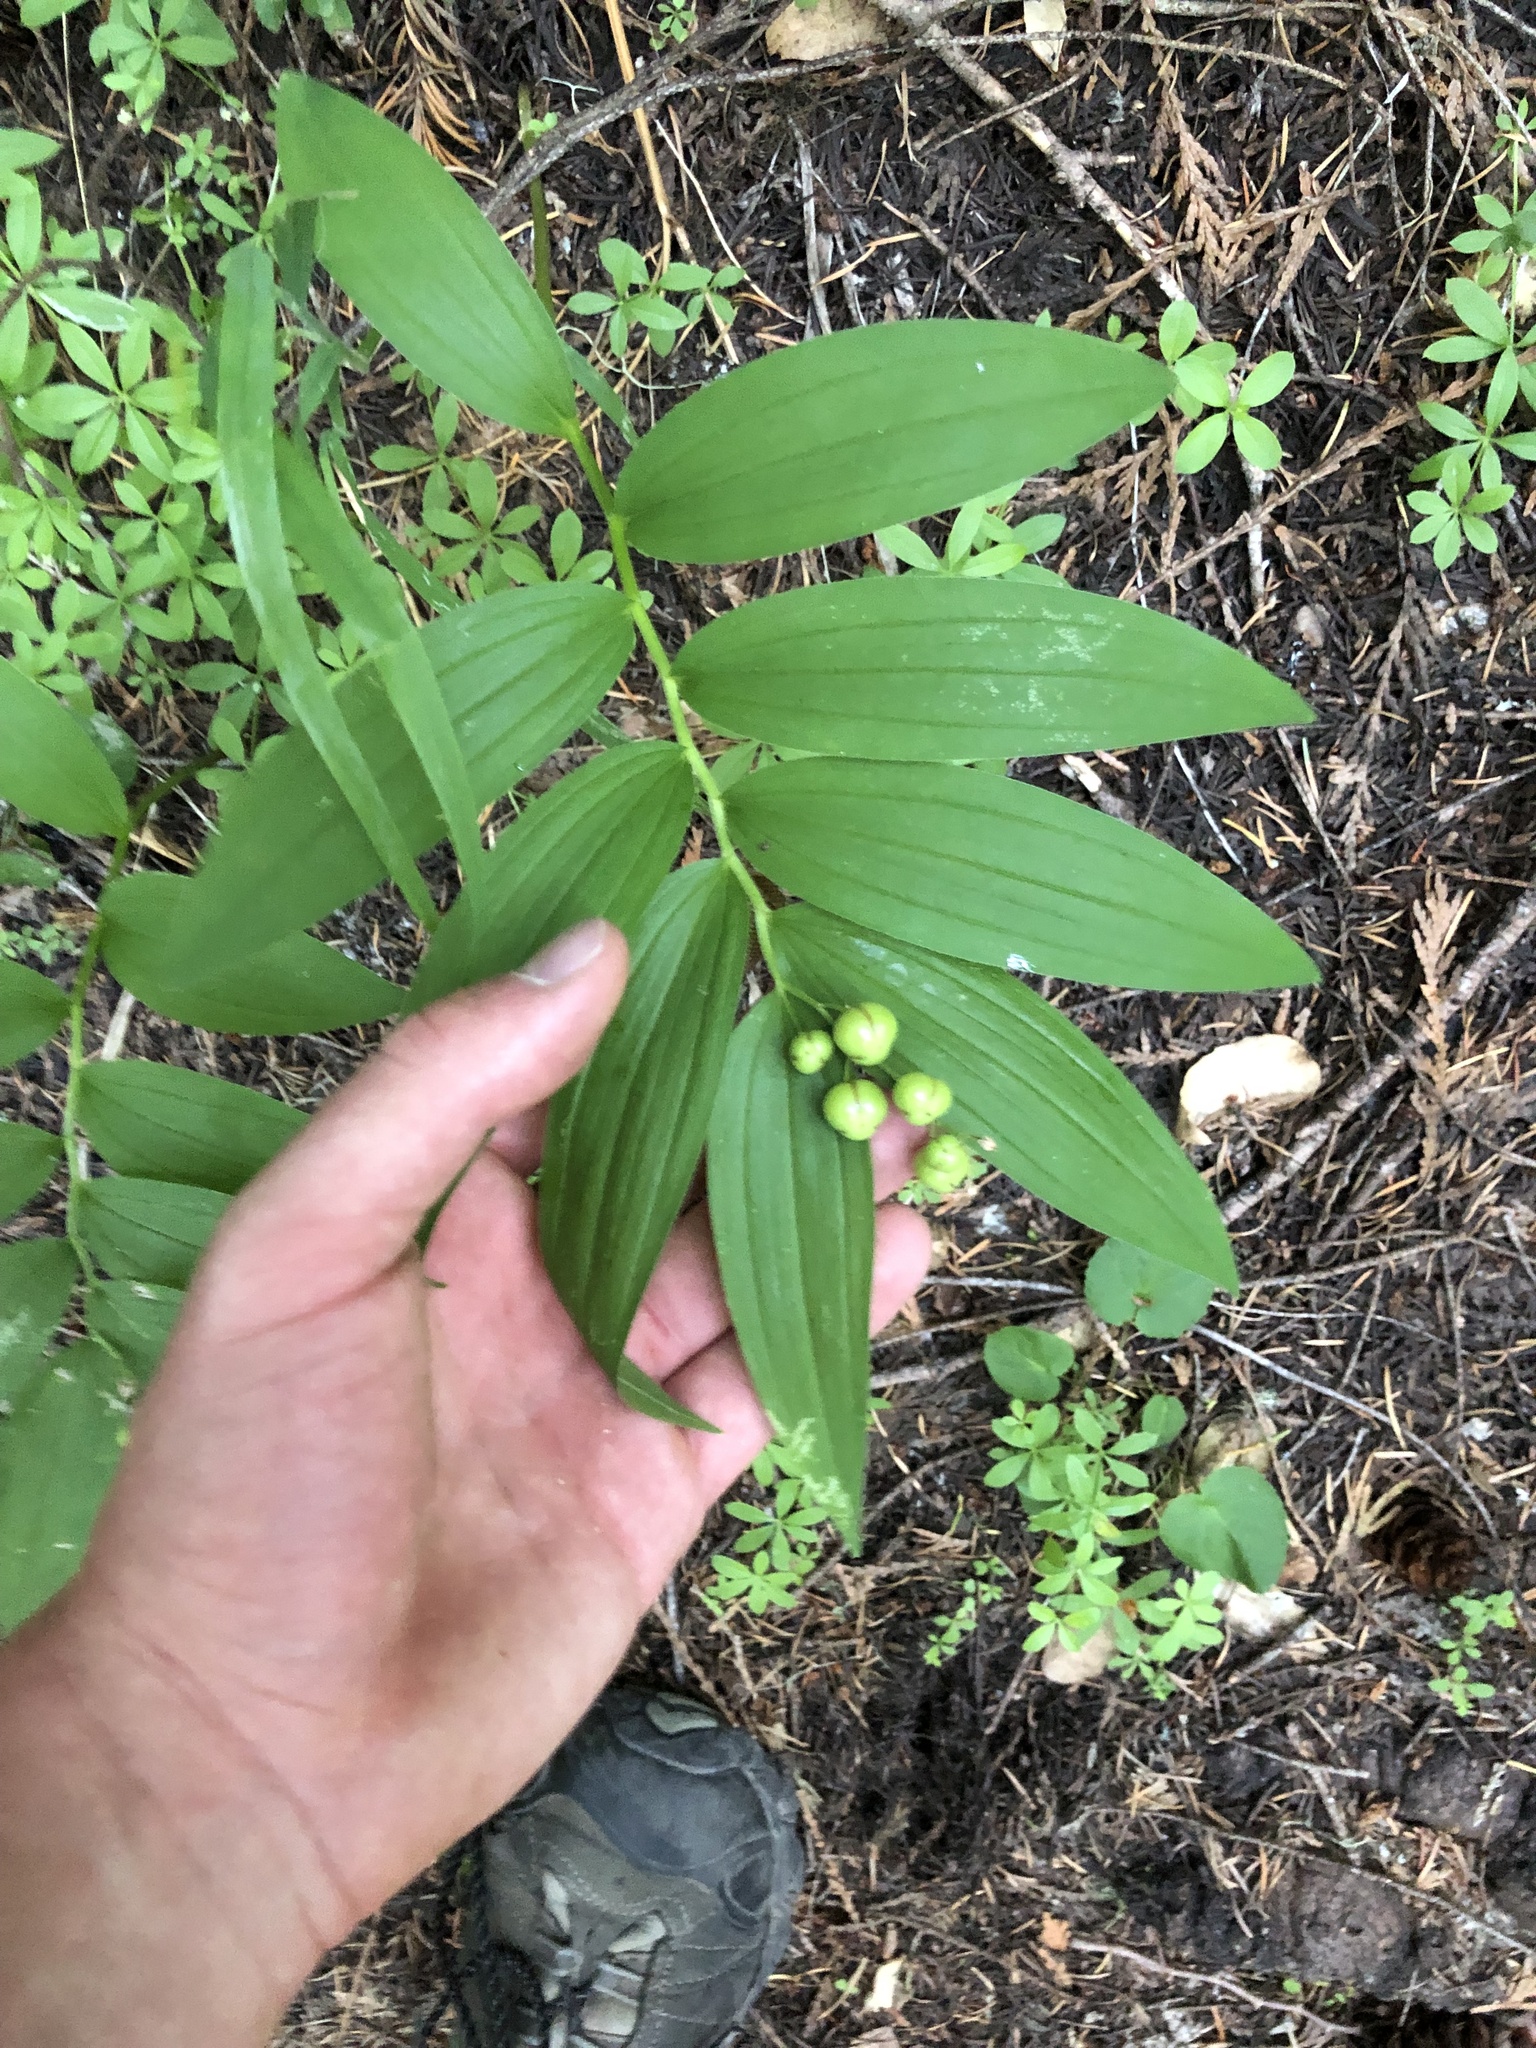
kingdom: Plantae
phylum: Tracheophyta
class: Liliopsida
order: Asparagales
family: Asparagaceae
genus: Maianthemum
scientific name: Maianthemum stellatum
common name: Little false solomon's seal
